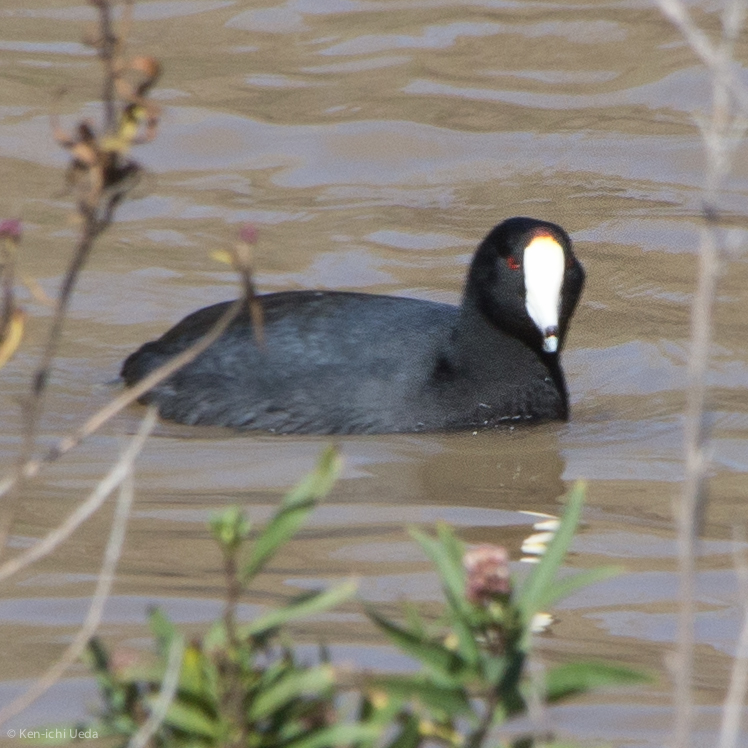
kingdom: Animalia
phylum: Chordata
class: Aves
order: Gruiformes
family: Rallidae
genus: Fulica
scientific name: Fulica americana
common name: American coot
